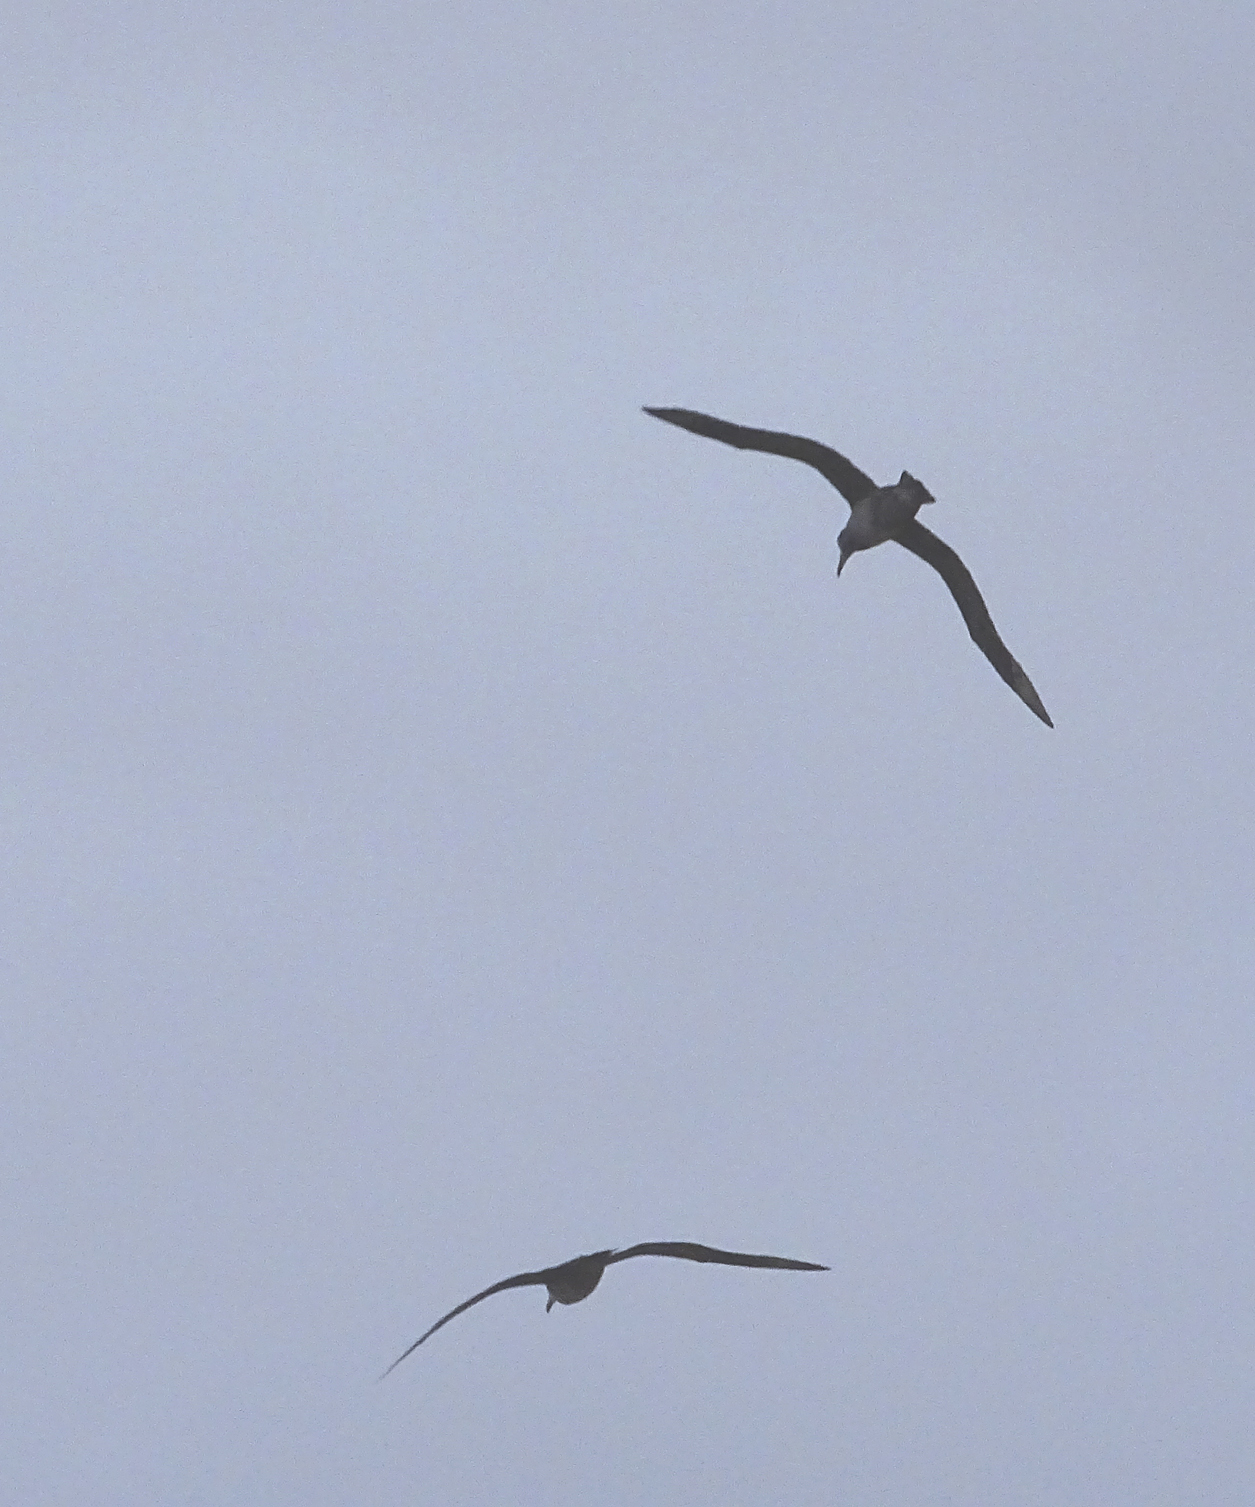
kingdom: Animalia
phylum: Chordata
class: Aves
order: Procellariiformes
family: Diomedeidae
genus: Phoebastria
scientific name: Phoebastria nigripes
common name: Black-footed albatross
